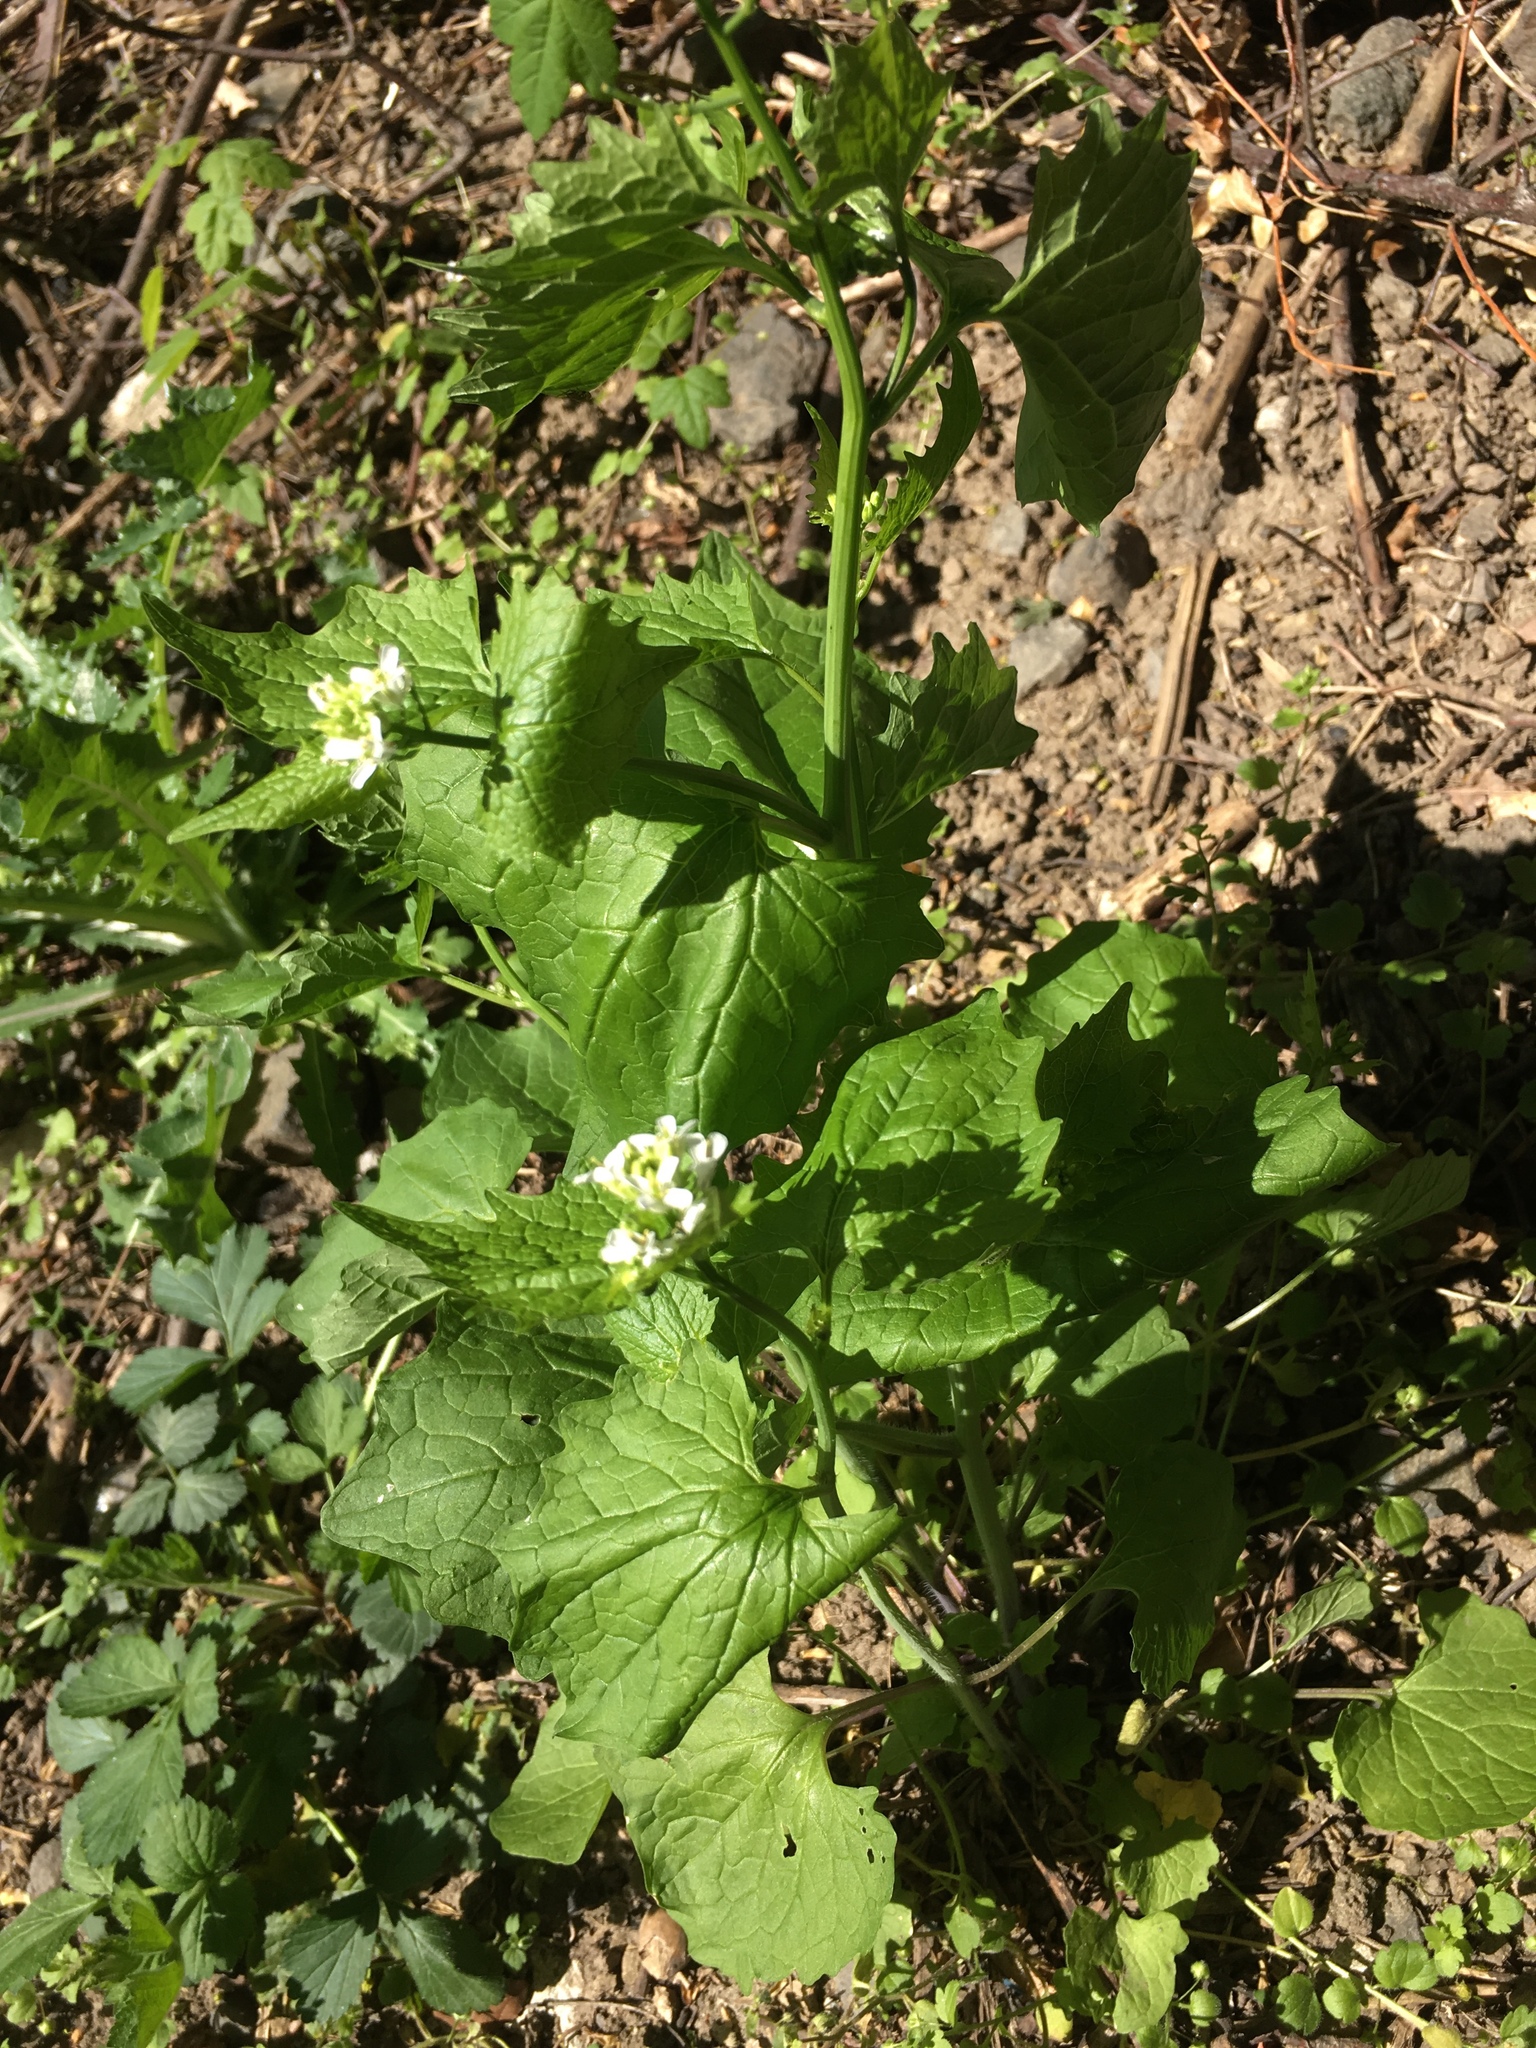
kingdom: Plantae
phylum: Tracheophyta
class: Magnoliopsida
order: Brassicales
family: Brassicaceae
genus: Alliaria
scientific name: Alliaria petiolata
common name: Garlic mustard
